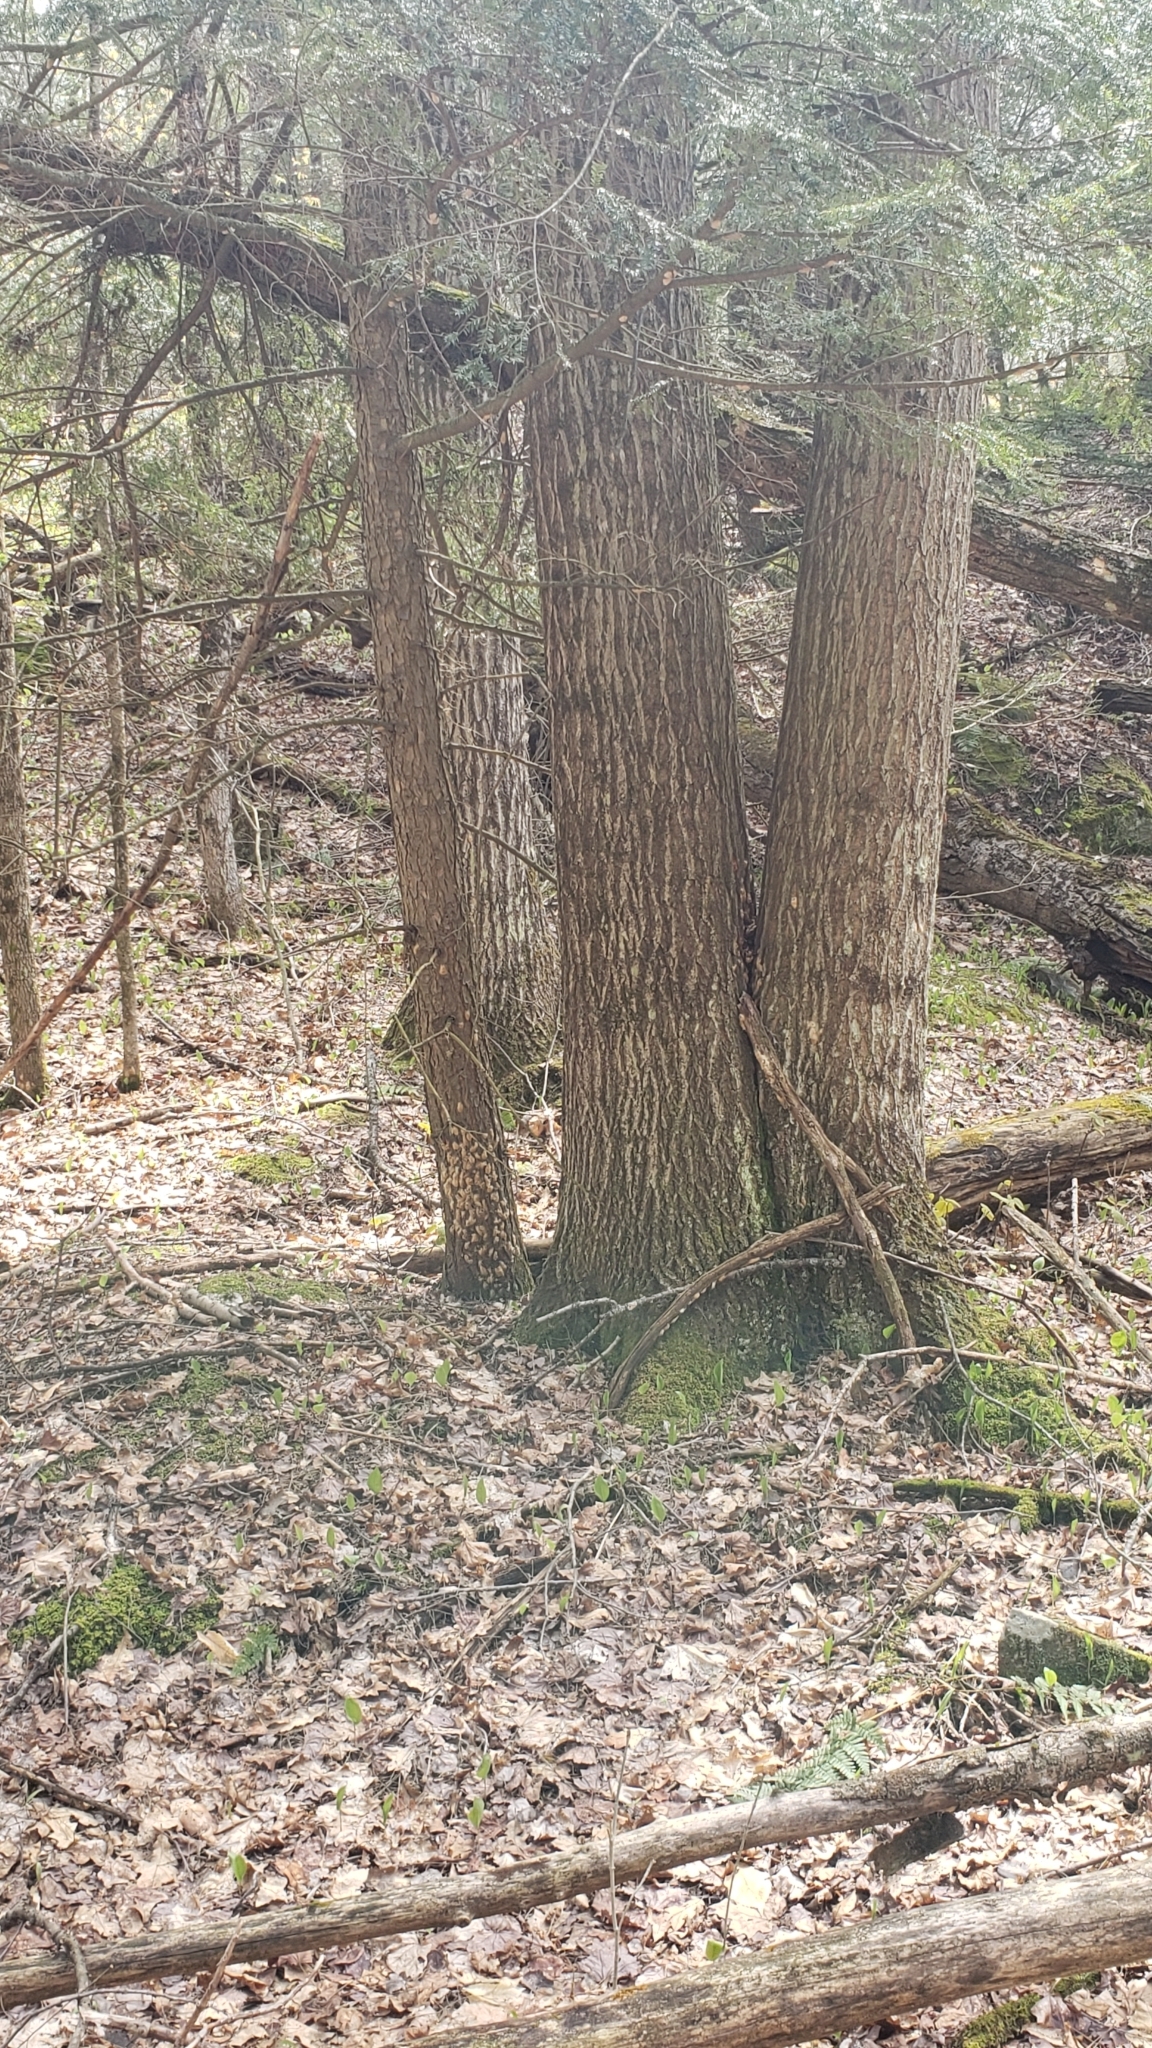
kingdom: Animalia
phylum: Arthropoda
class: Insecta
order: Lepidoptera
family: Erebidae
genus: Lymantria
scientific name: Lymantria dispar
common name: Gypsy moth
